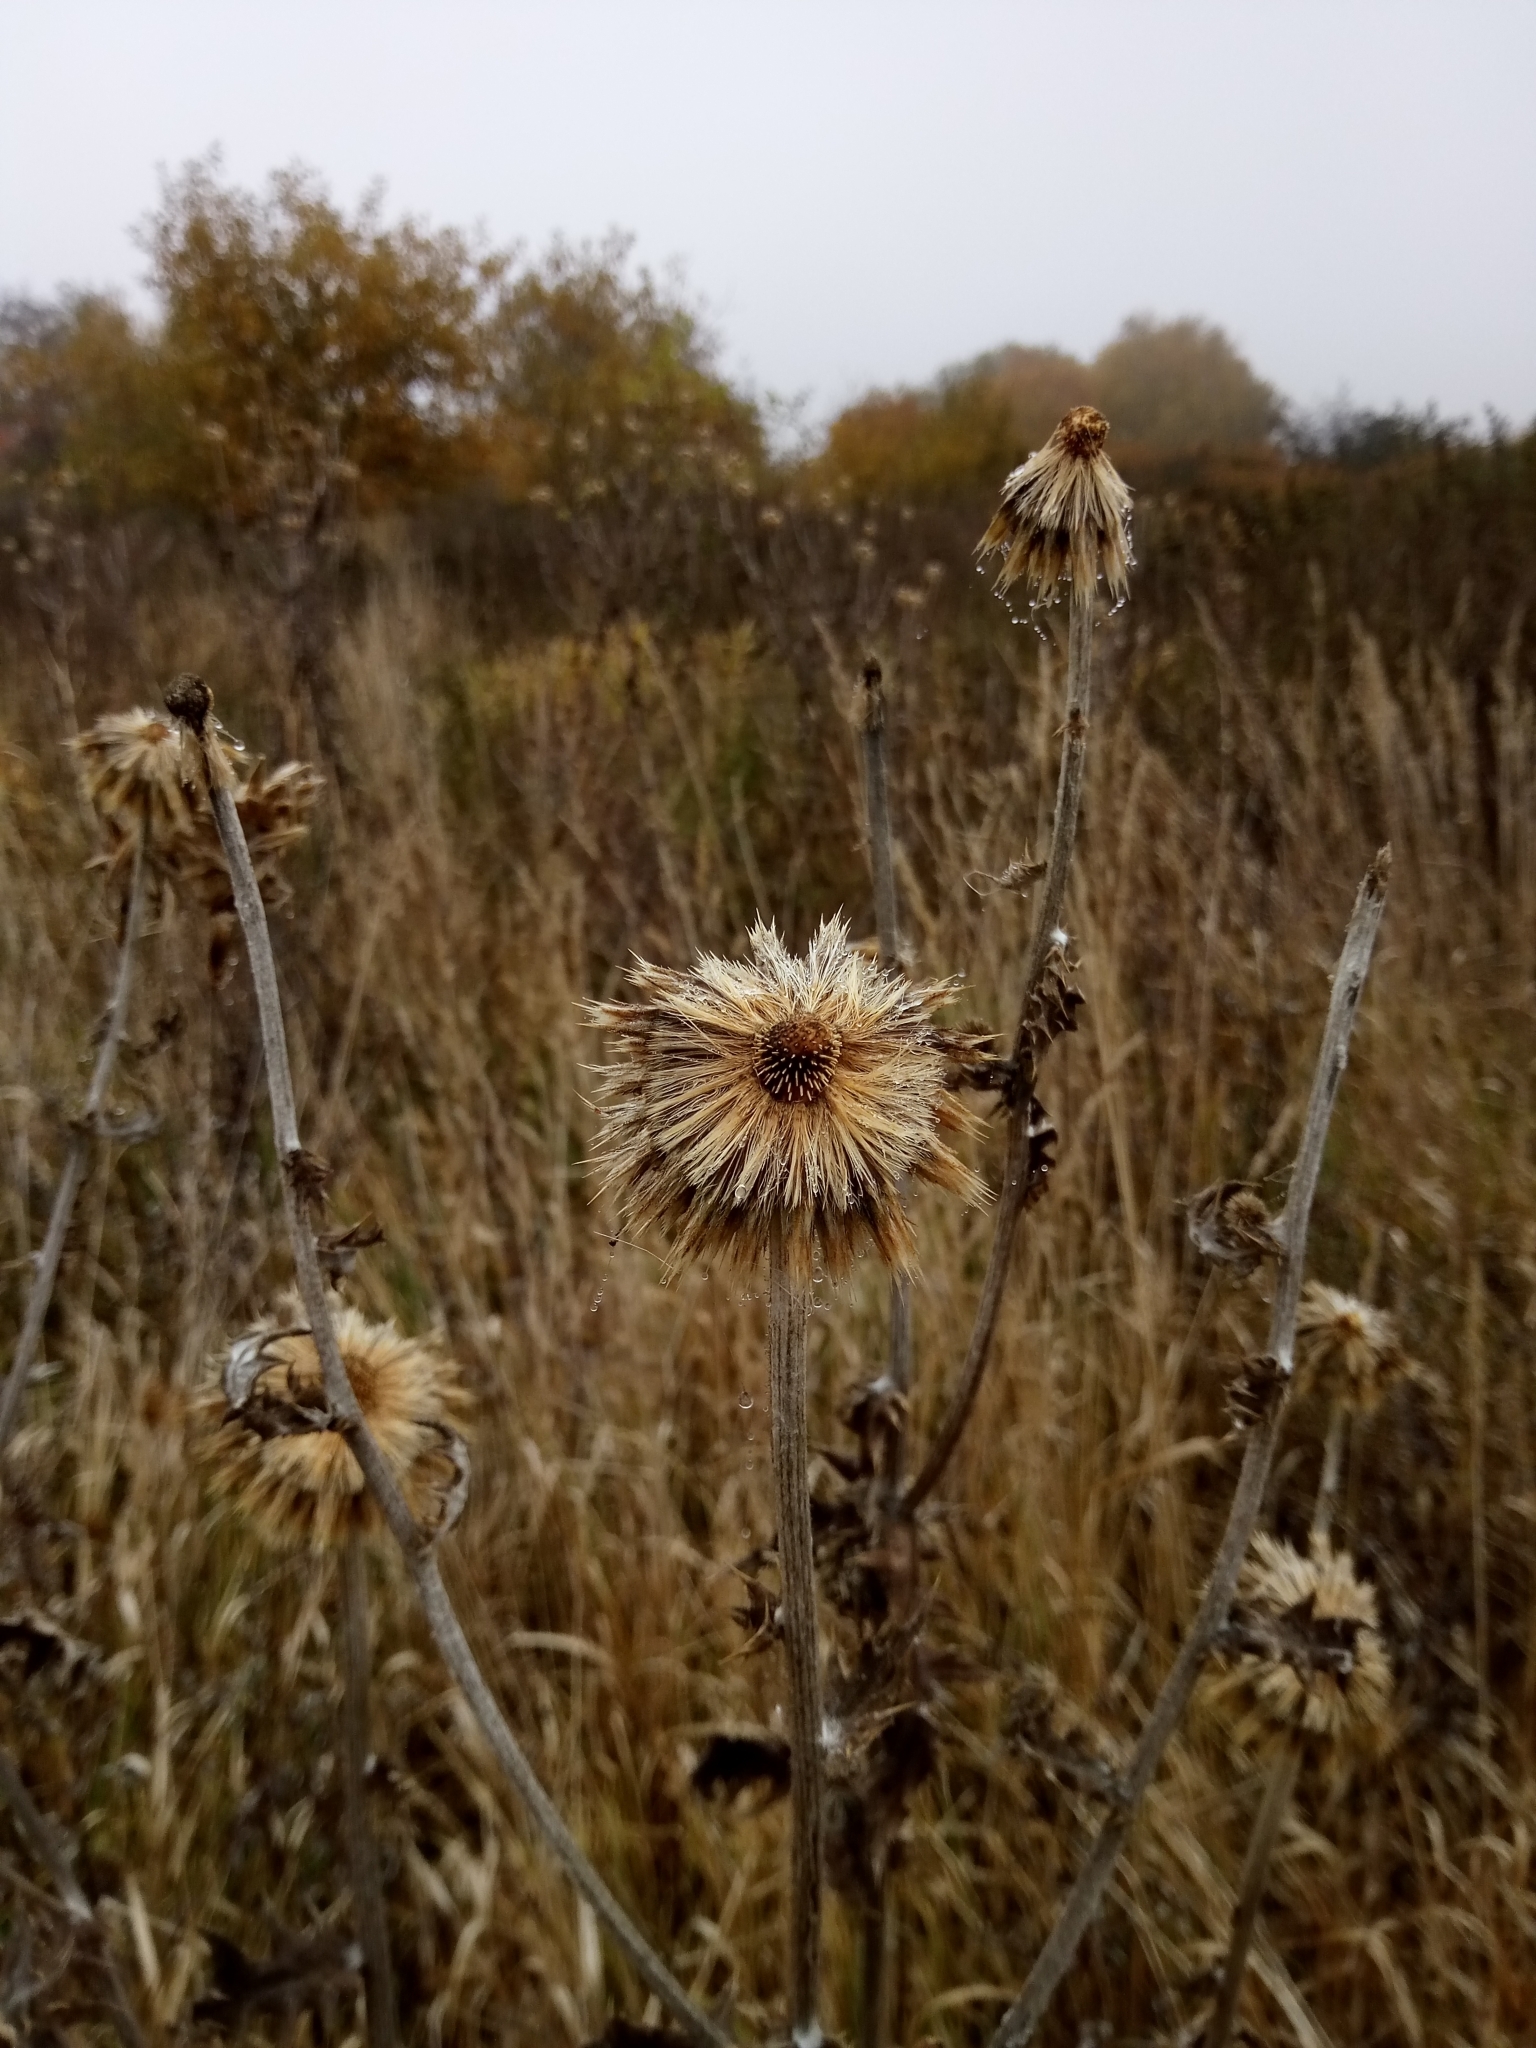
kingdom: Plantae
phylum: Tracheophyta
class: Magnoliopsida
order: Asterales
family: Asteraceae
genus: Echinops
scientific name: Echinops sphaerocephalus
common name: Glandular globe-thistle
